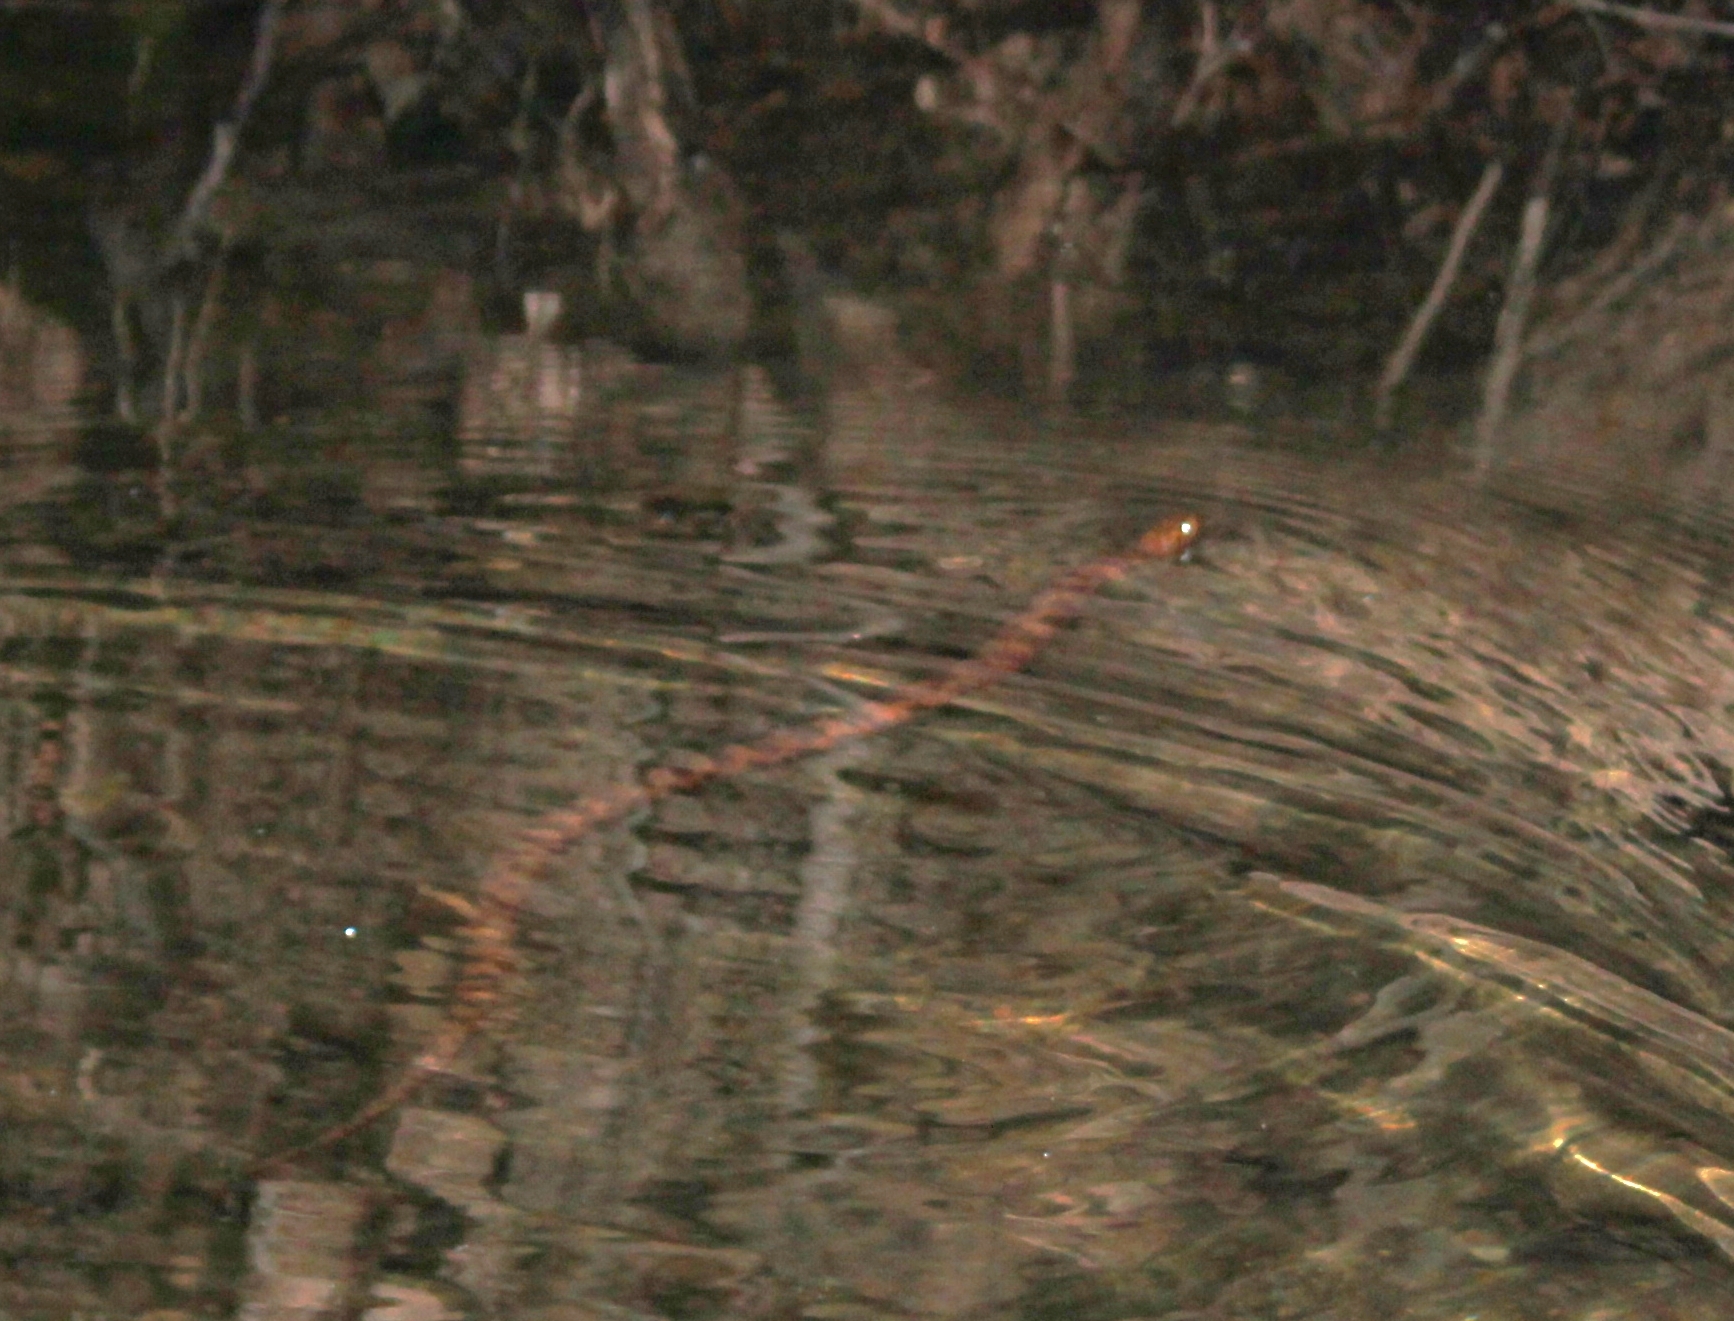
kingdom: Animalia
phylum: Chordata
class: Squamata
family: Colubridae
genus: Nerodia
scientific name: Nerodia sipedon
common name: Northern water snake
